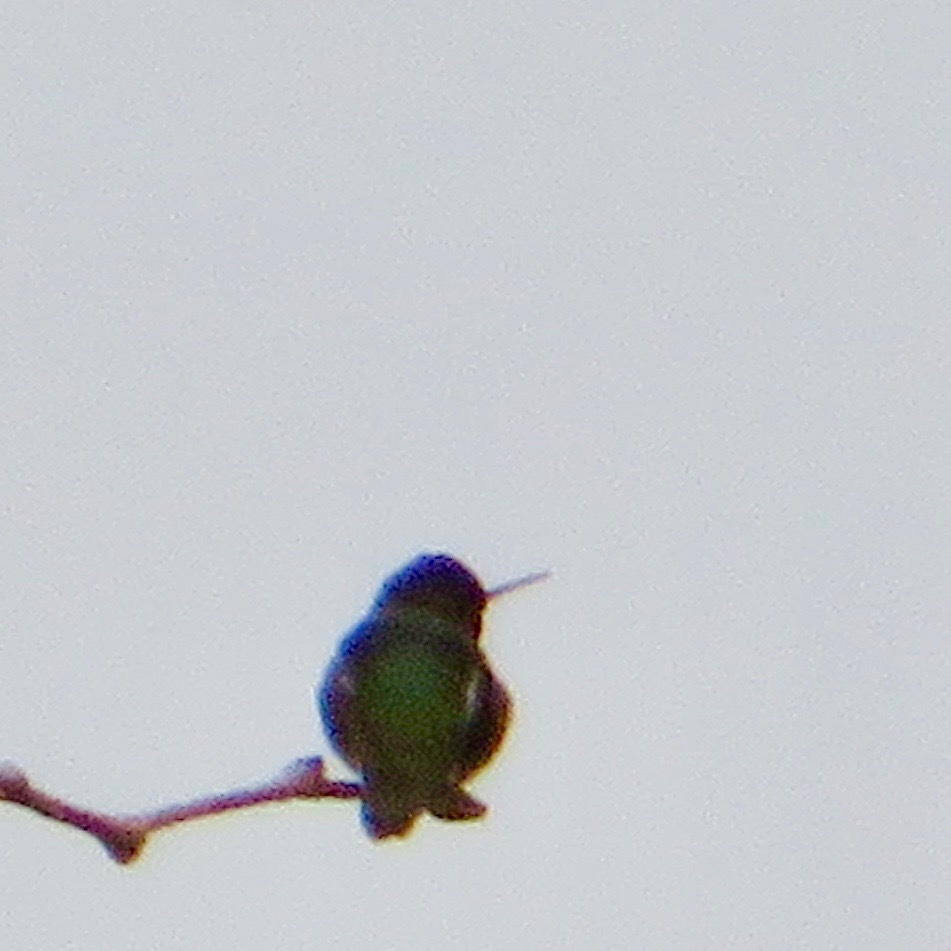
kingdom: Animalia
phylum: Chordata
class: Aves
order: Apodiformes
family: Trochilidae
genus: Calypte
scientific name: Calypte anna
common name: Anna's hummingbird
